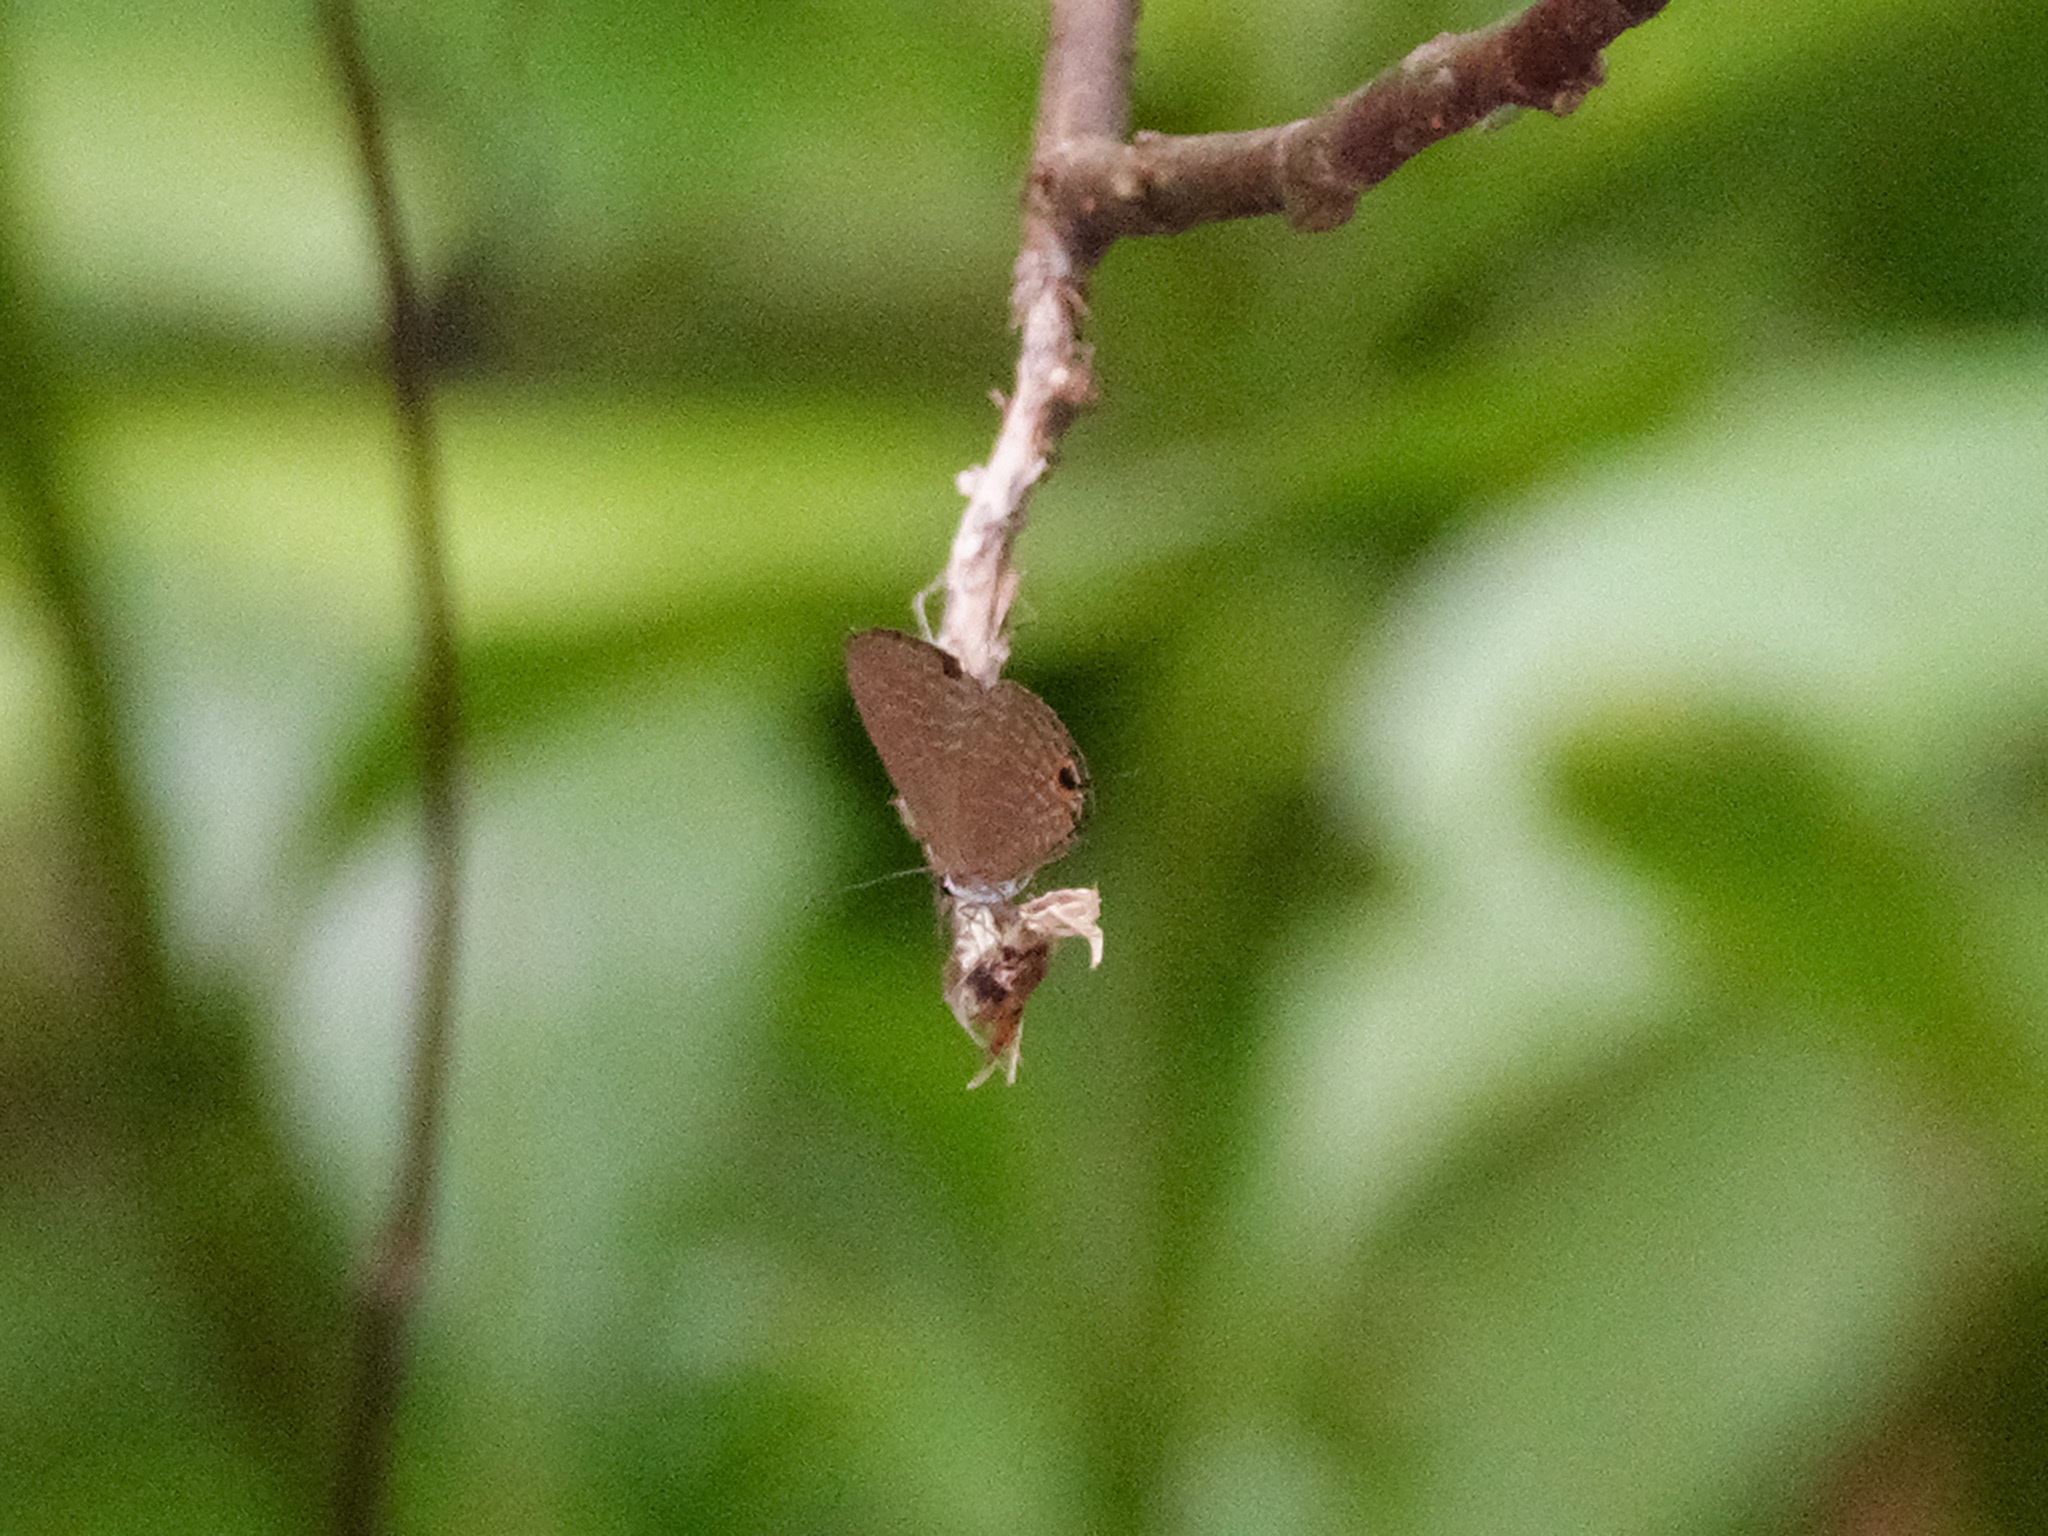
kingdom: Animalia
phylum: Arthropoda
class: Insecta
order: Lepidoptera
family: Lycaenidae
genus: Jamides
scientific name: Jamides bochus
